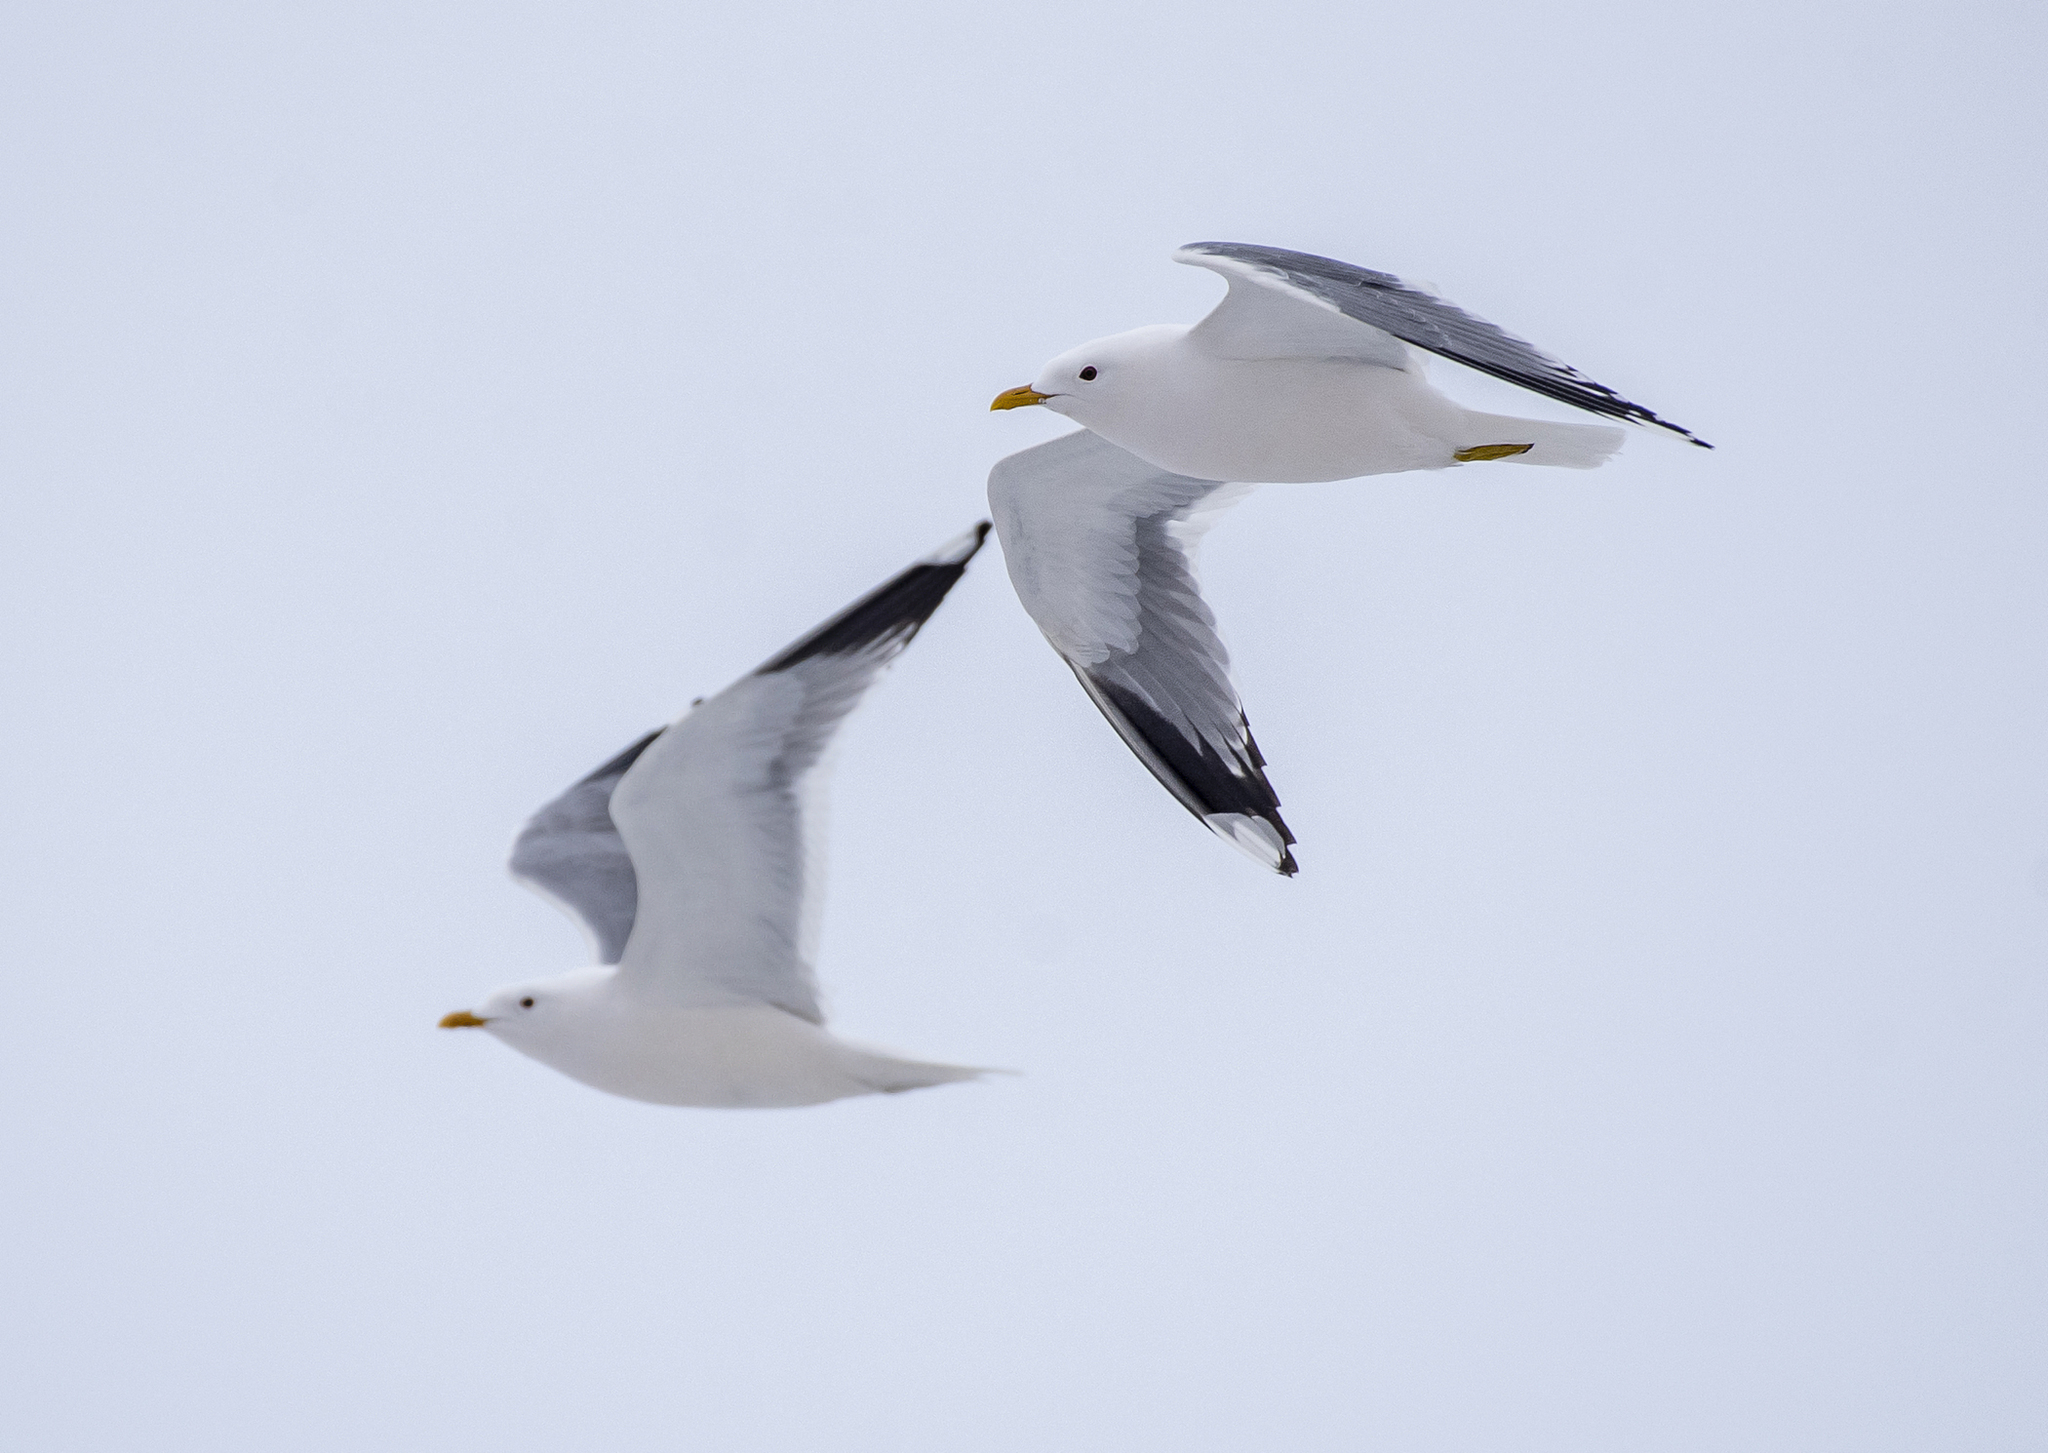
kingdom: Animalia
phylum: Chordata
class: Aves
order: Charadriiformes
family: Laridae
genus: Larus
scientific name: Larus canus
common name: Mew gull
